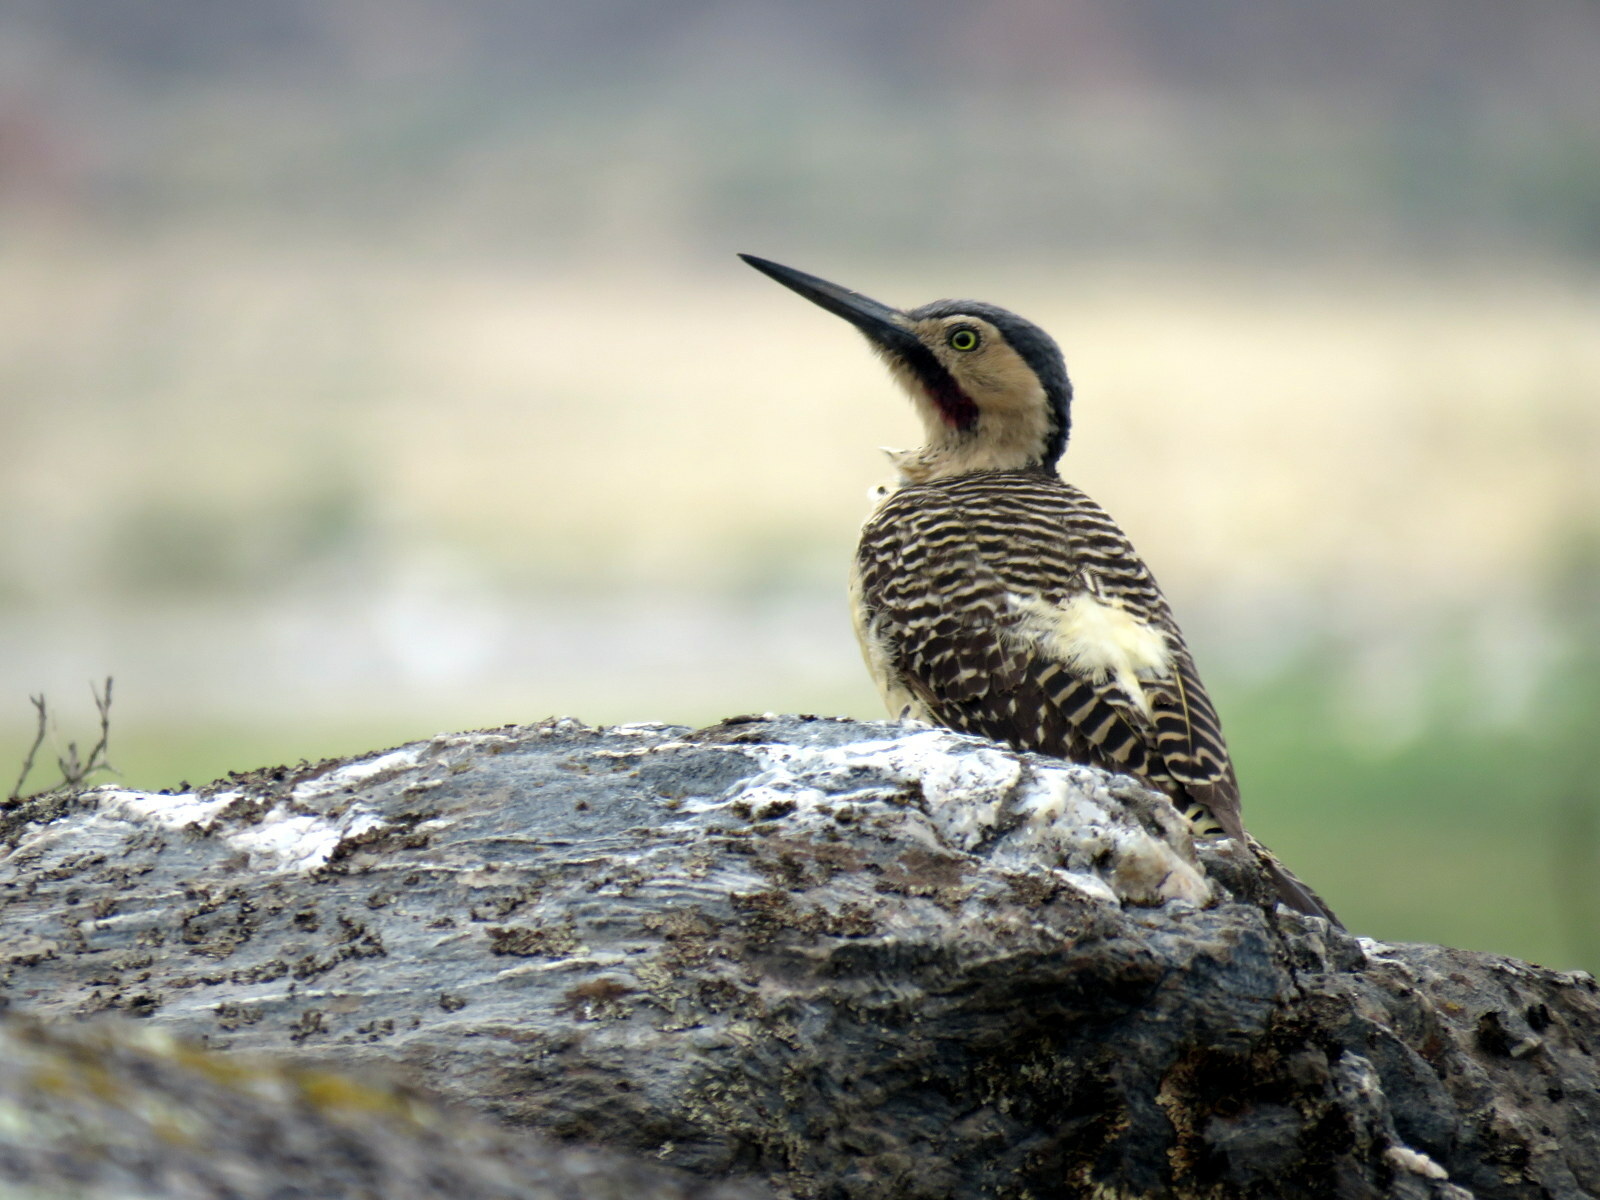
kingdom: Animalia
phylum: Chordata
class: Aves
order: Piciformes
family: Picidae
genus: Colaptes
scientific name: Colaptes rupicola
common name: Andean flicker
